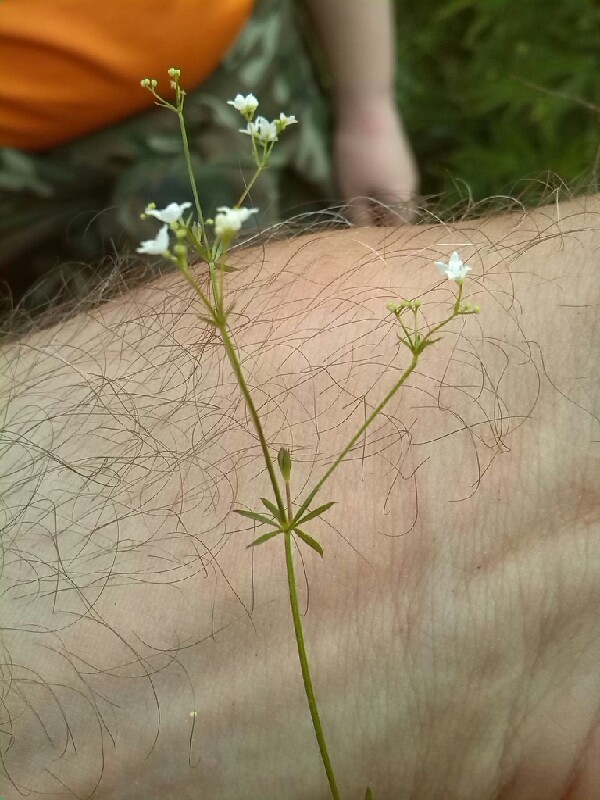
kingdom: Plantae
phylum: Tracheophyta
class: Magnoliopsida
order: Gentianales
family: Rubiaceae
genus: Galium
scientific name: Galium uliginosum
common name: Fen bedstraw
